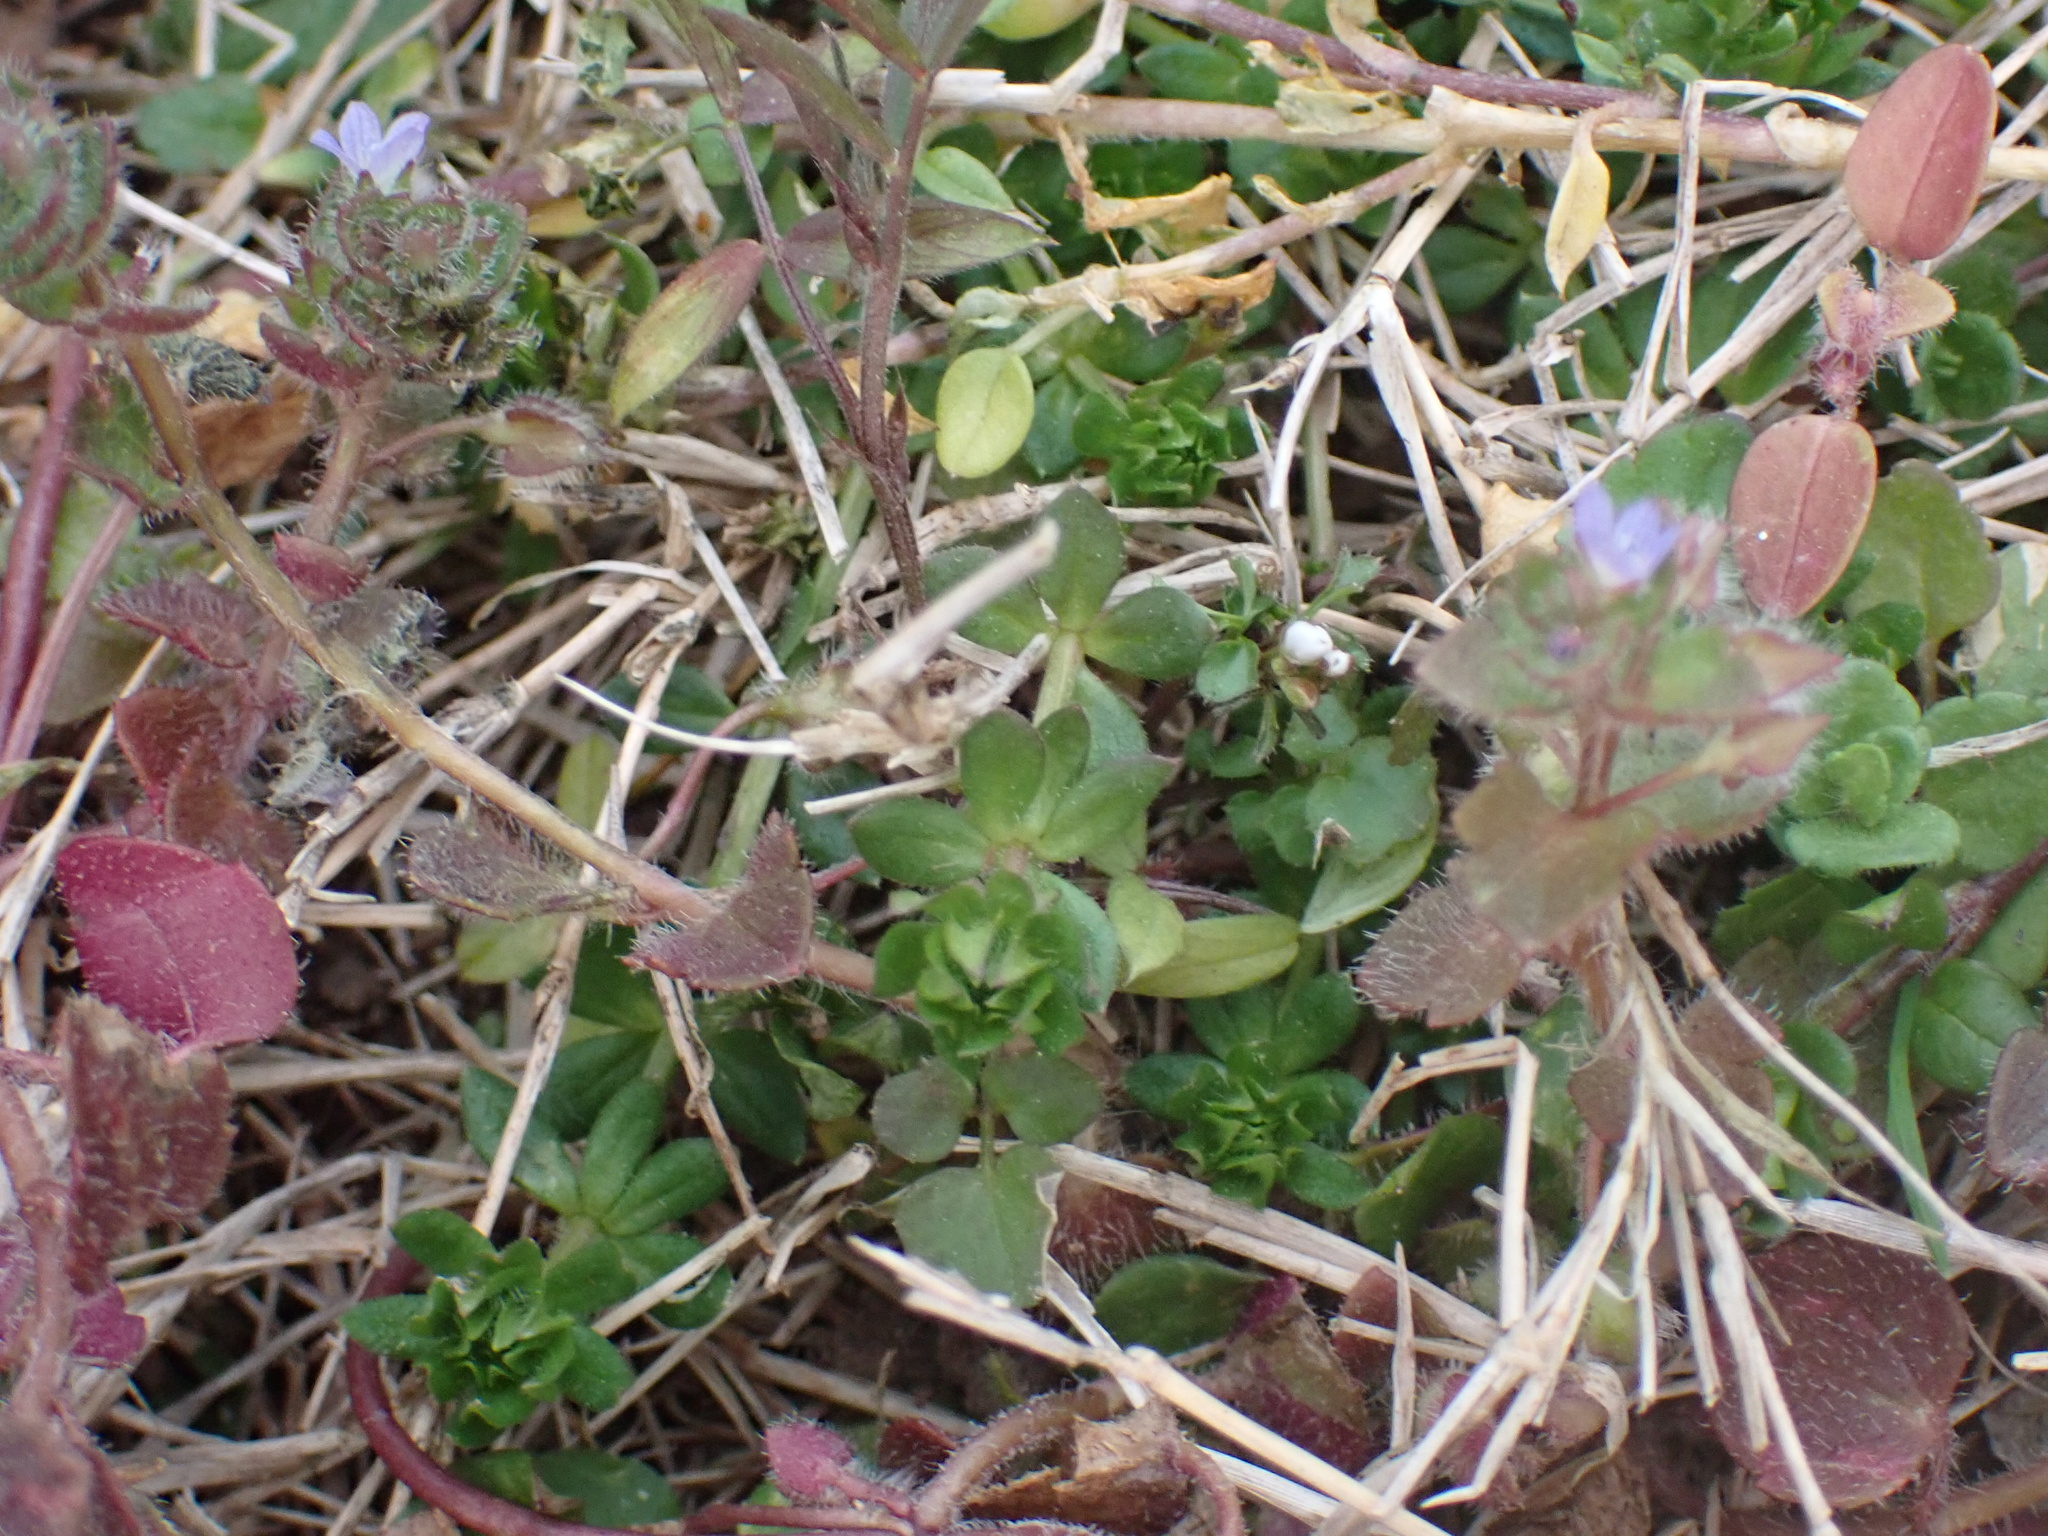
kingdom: Plantae
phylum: Tracheophyta
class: Magnoliopsida
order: Lamiales
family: Plantaginaceae
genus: Veronica
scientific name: Veronica hederifolia
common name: Ivy-leaved speedwell
